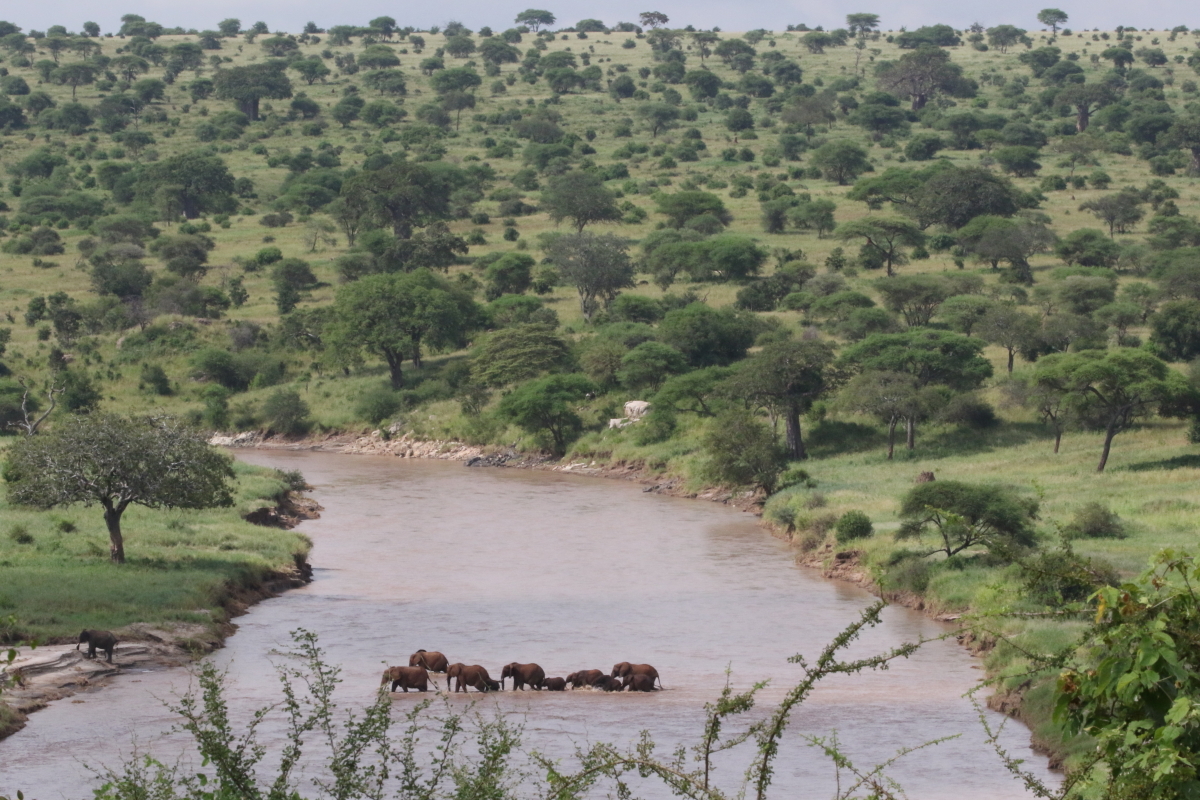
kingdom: Animalia
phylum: Chordata
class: Mammalia
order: Proboscidea
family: Elephantidae
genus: Loxodonta
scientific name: Loxodonta africana
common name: African elephant
